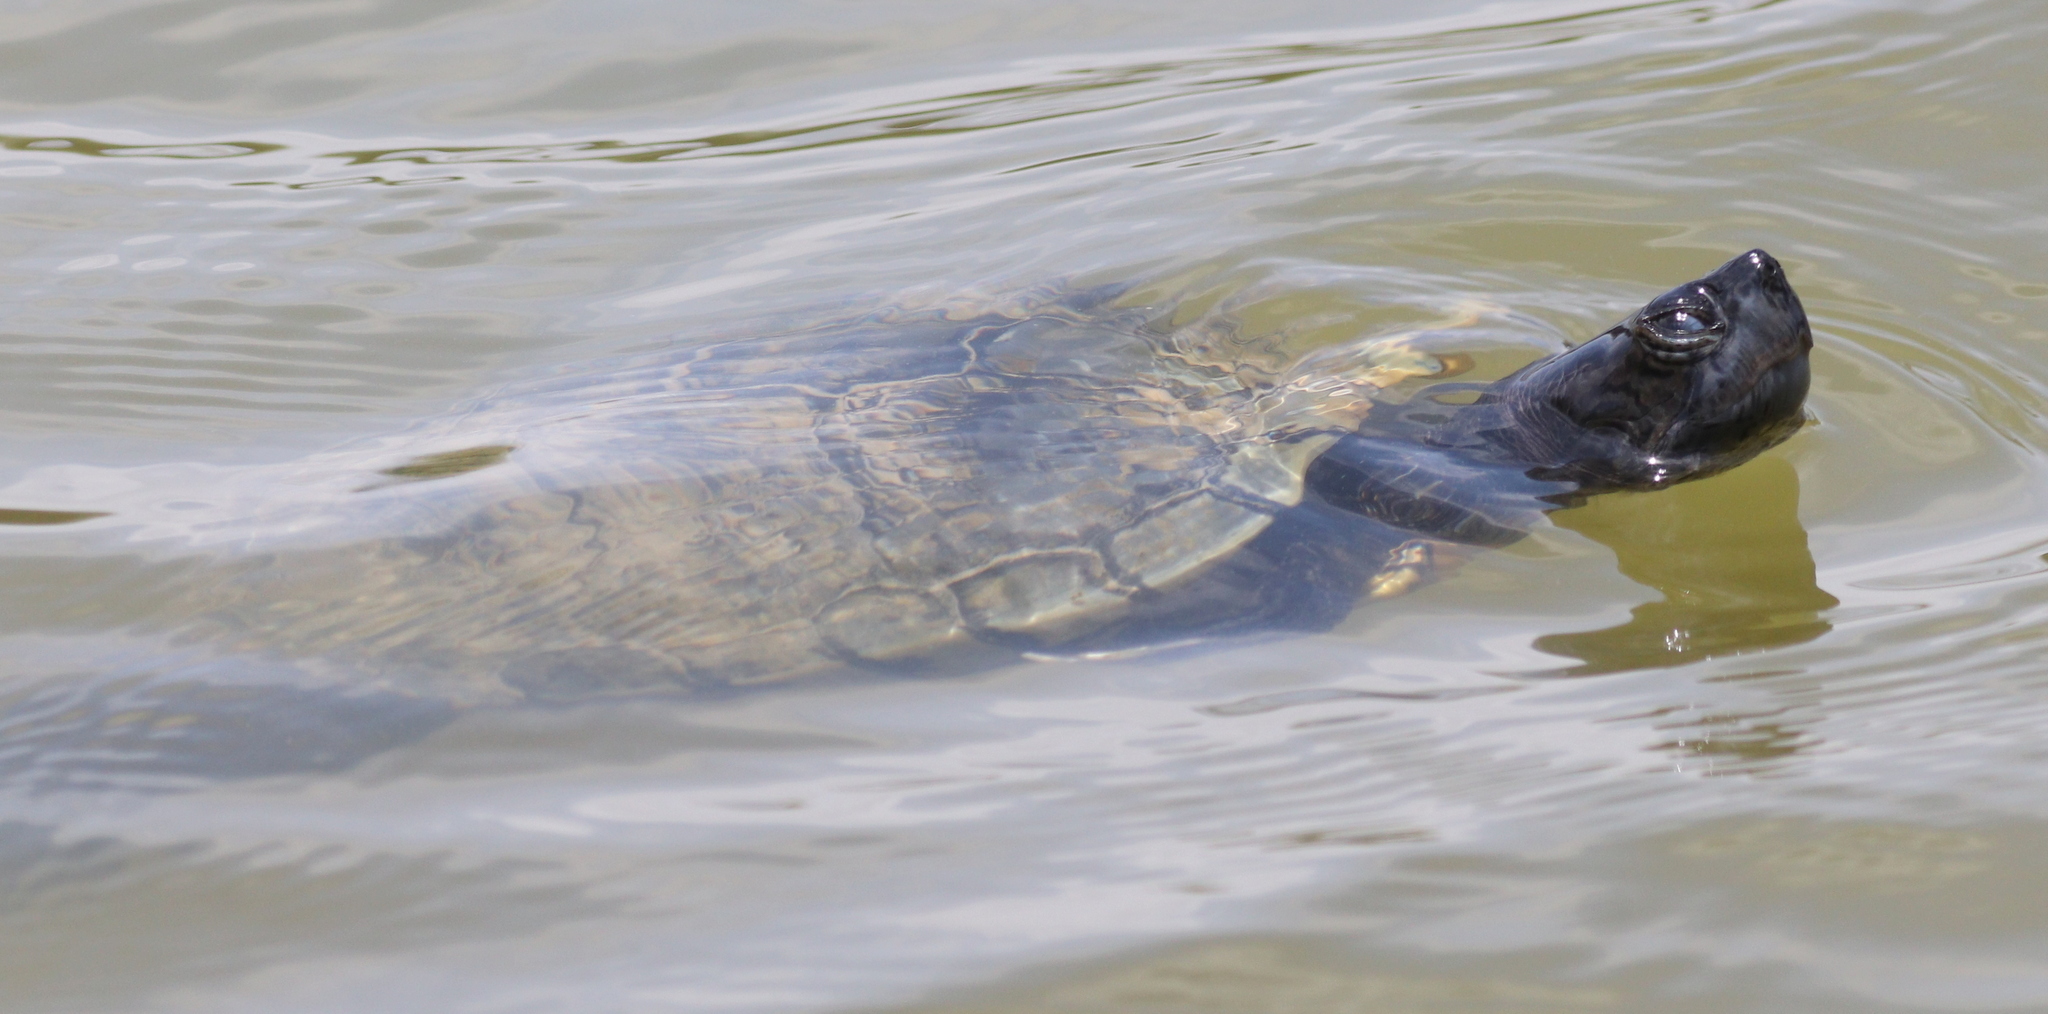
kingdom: Animalia
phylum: Chordata
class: Testudines
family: Emydidae
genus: Trachemys
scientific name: Trachemys scripta
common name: Slider
